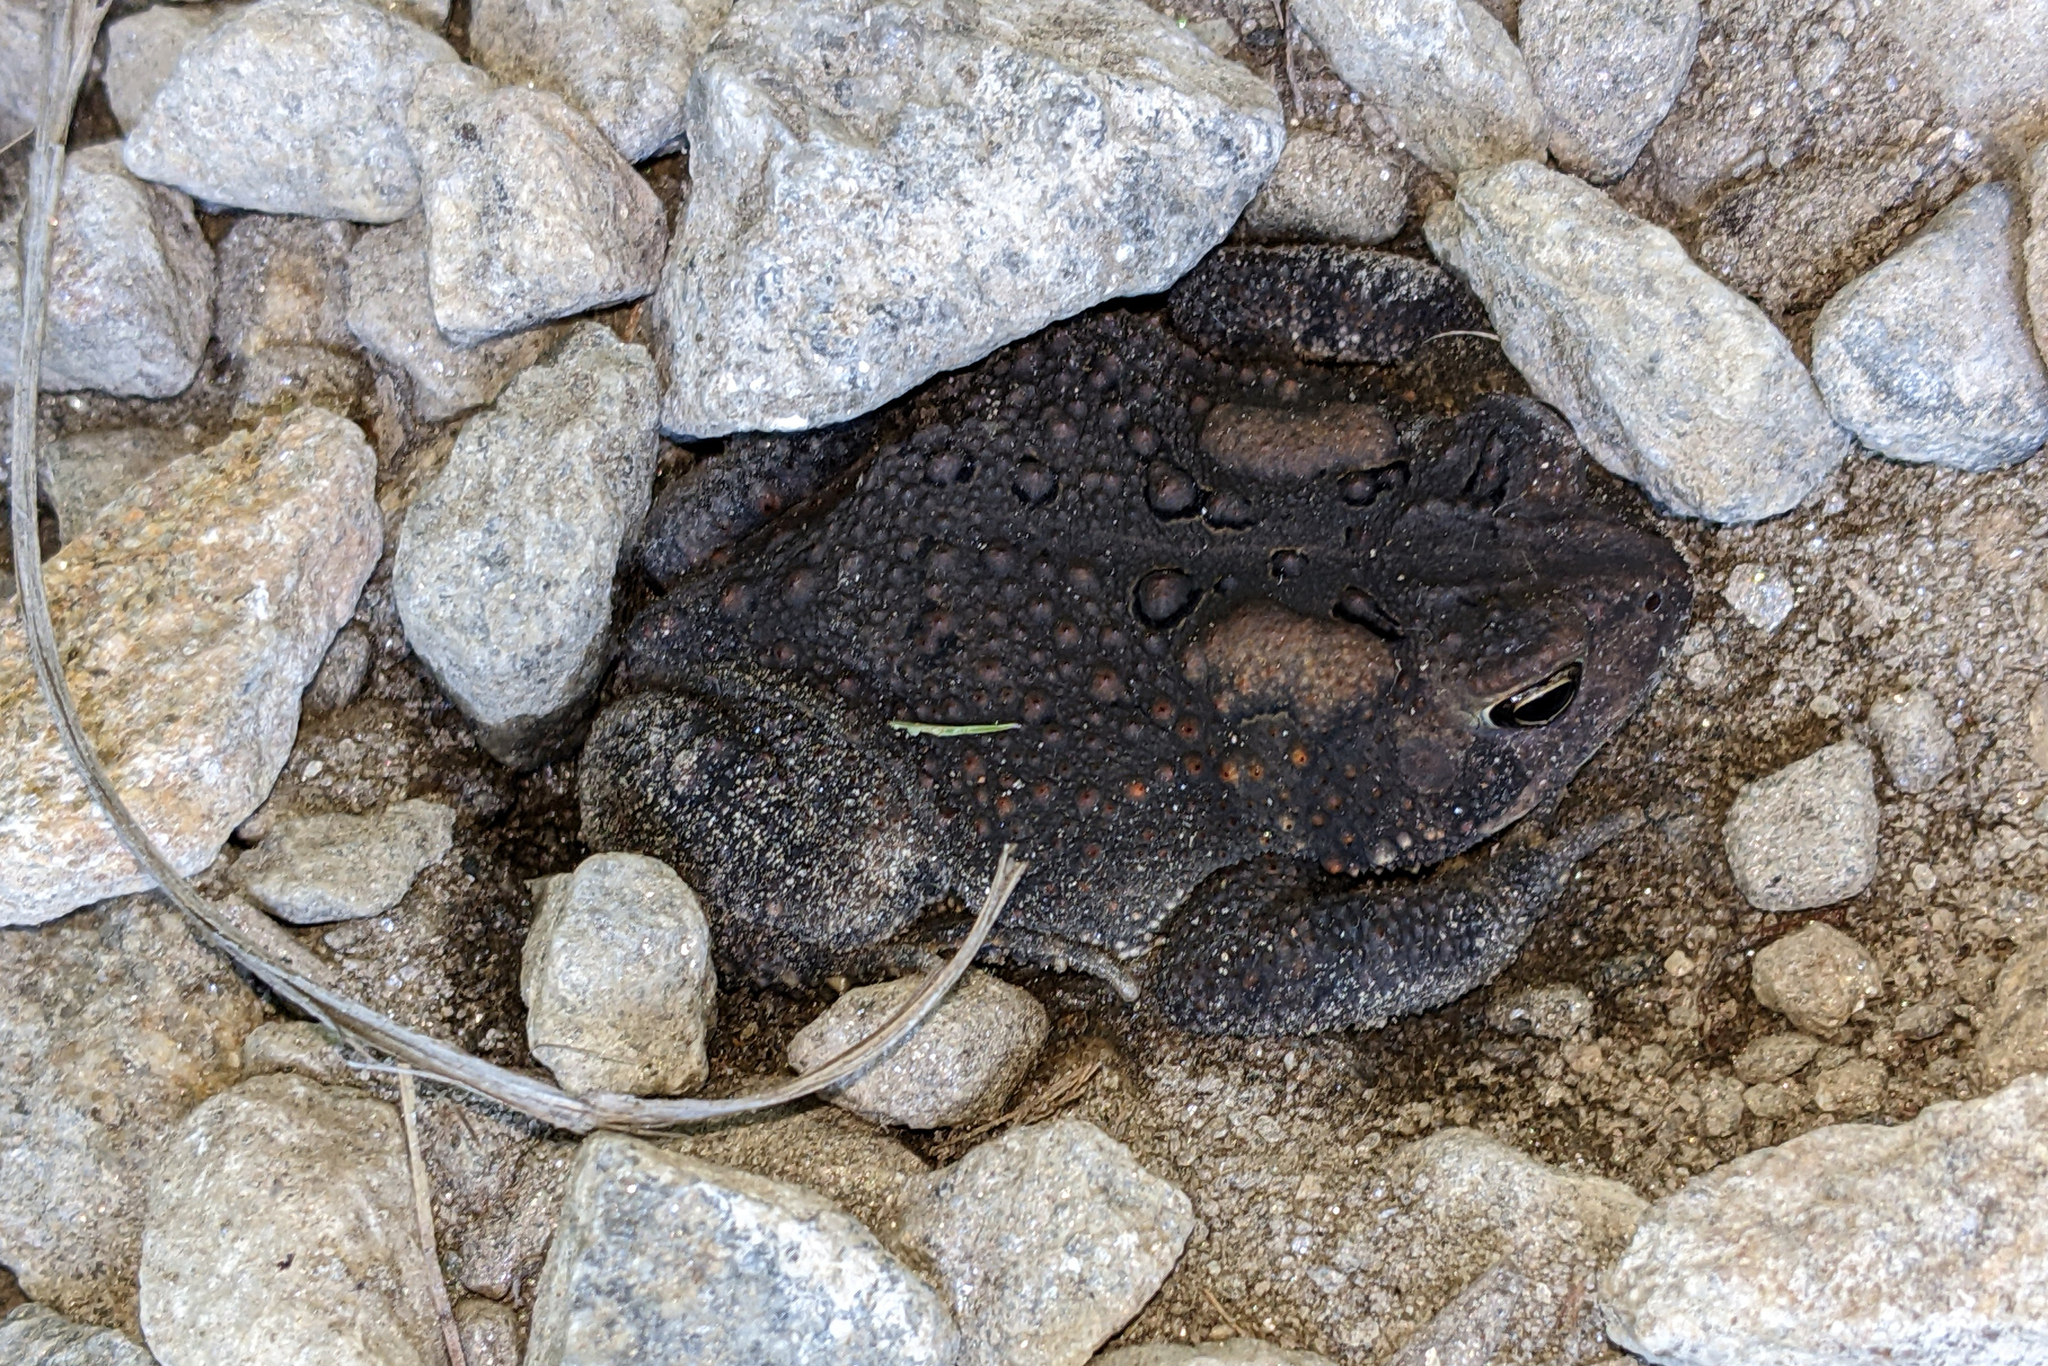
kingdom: Animalia
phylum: Chordata
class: Amphibia
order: Anura
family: Bufonidae
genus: Anaxyrus
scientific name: Anaxyrus americanus
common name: American toad
